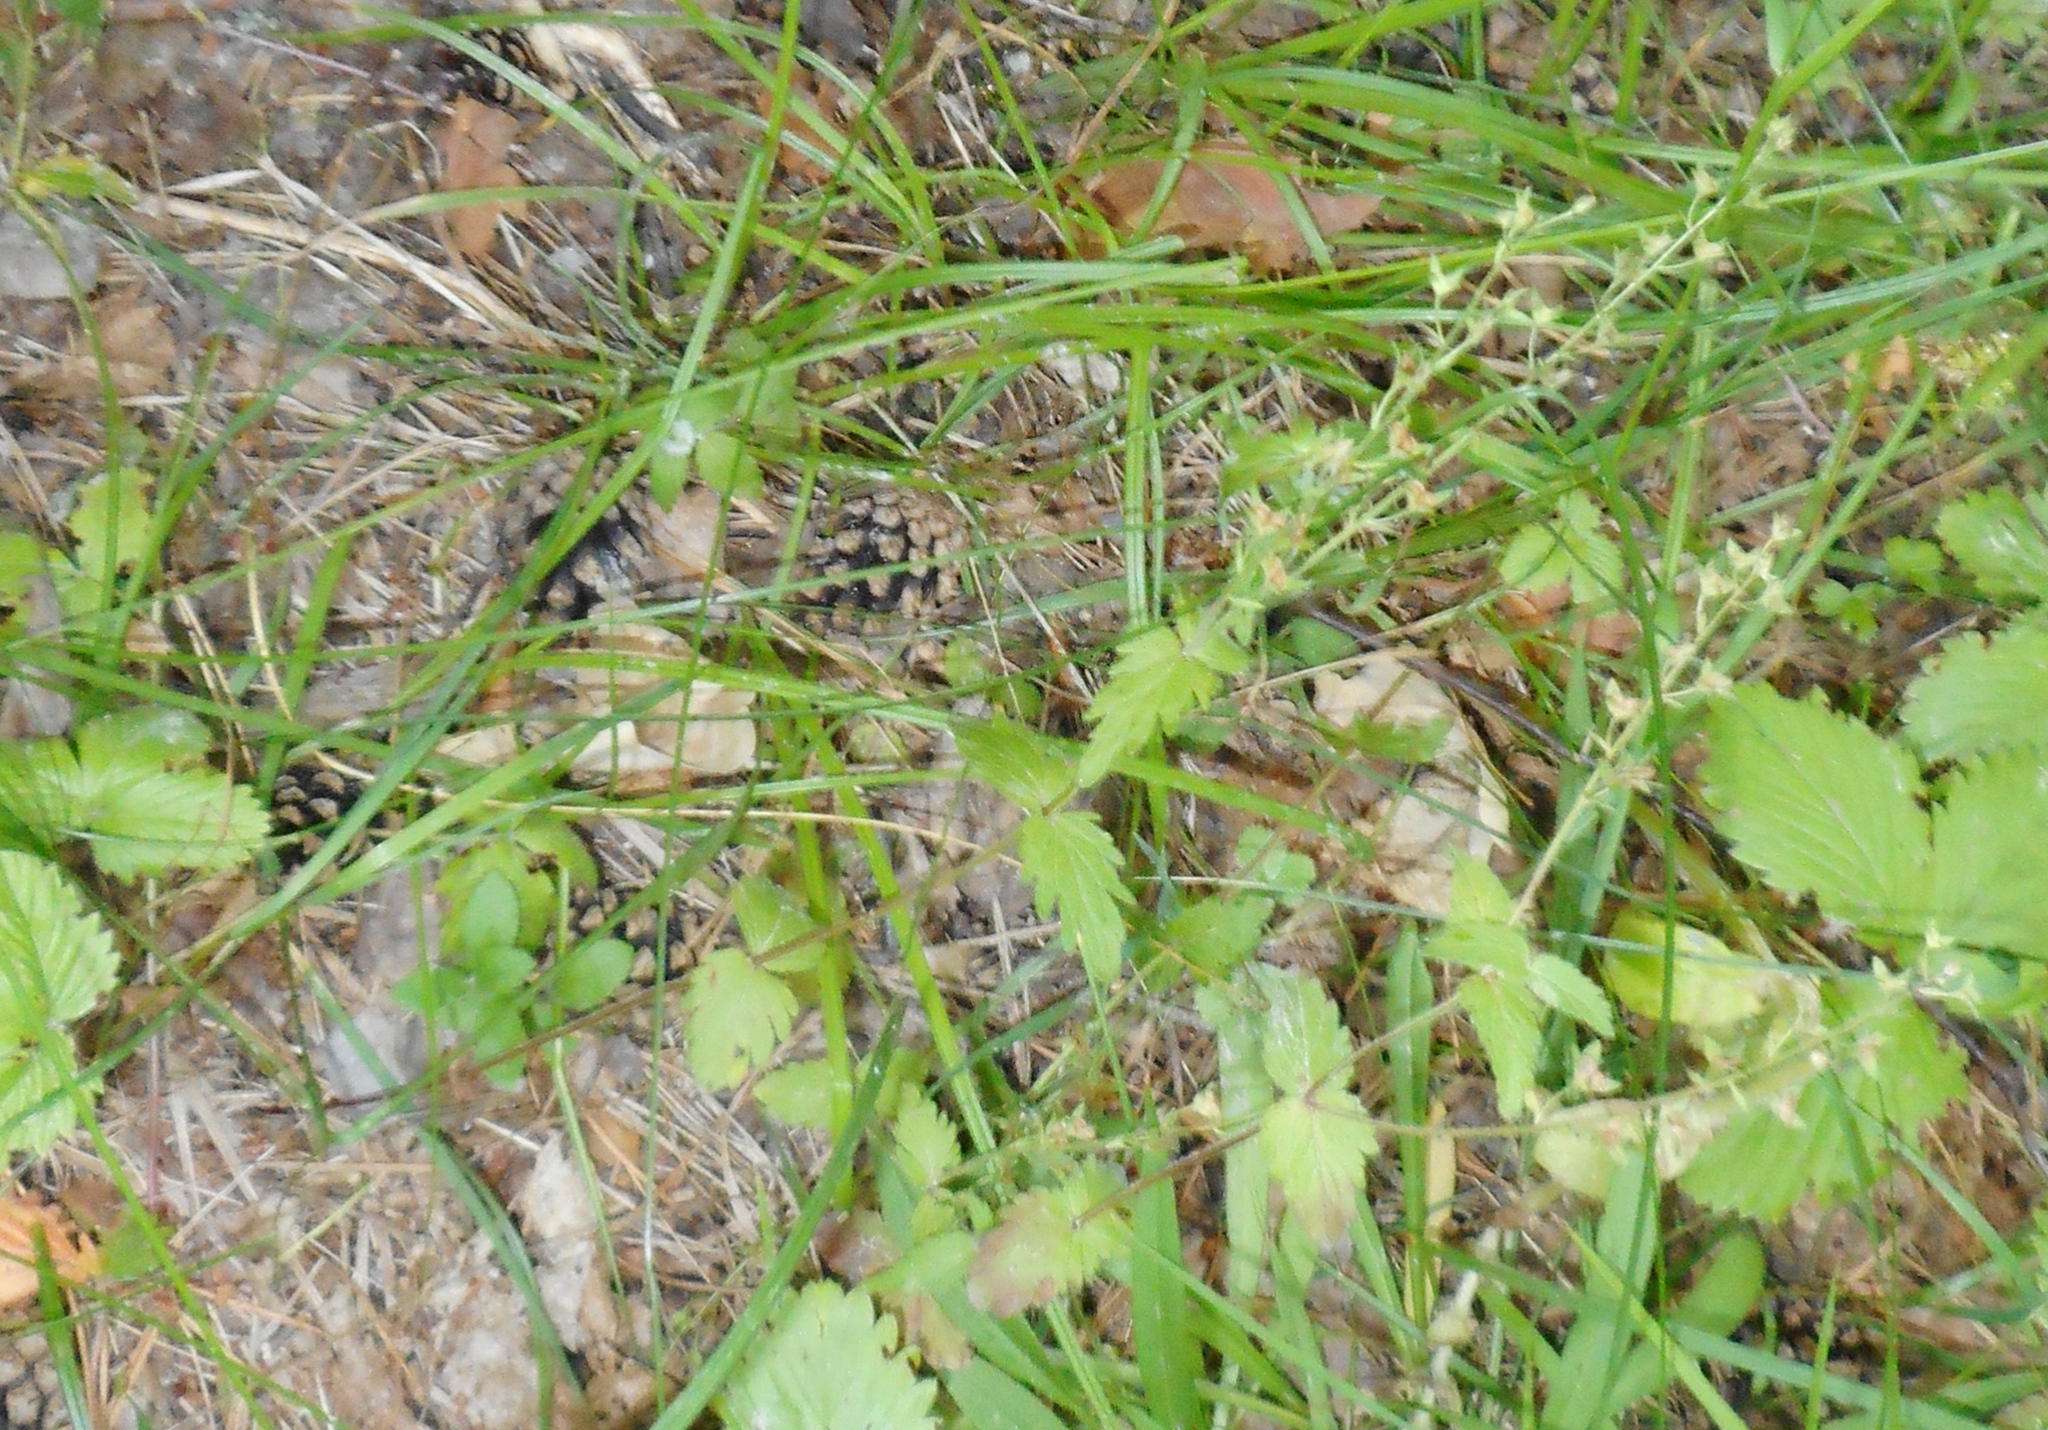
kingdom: Plantae
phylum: Tracheophyta
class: Magnoliopsida
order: Lamiales
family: Plantaginaceae
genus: Veronica
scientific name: Veronica chamaedrys
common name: Germander speedwell
